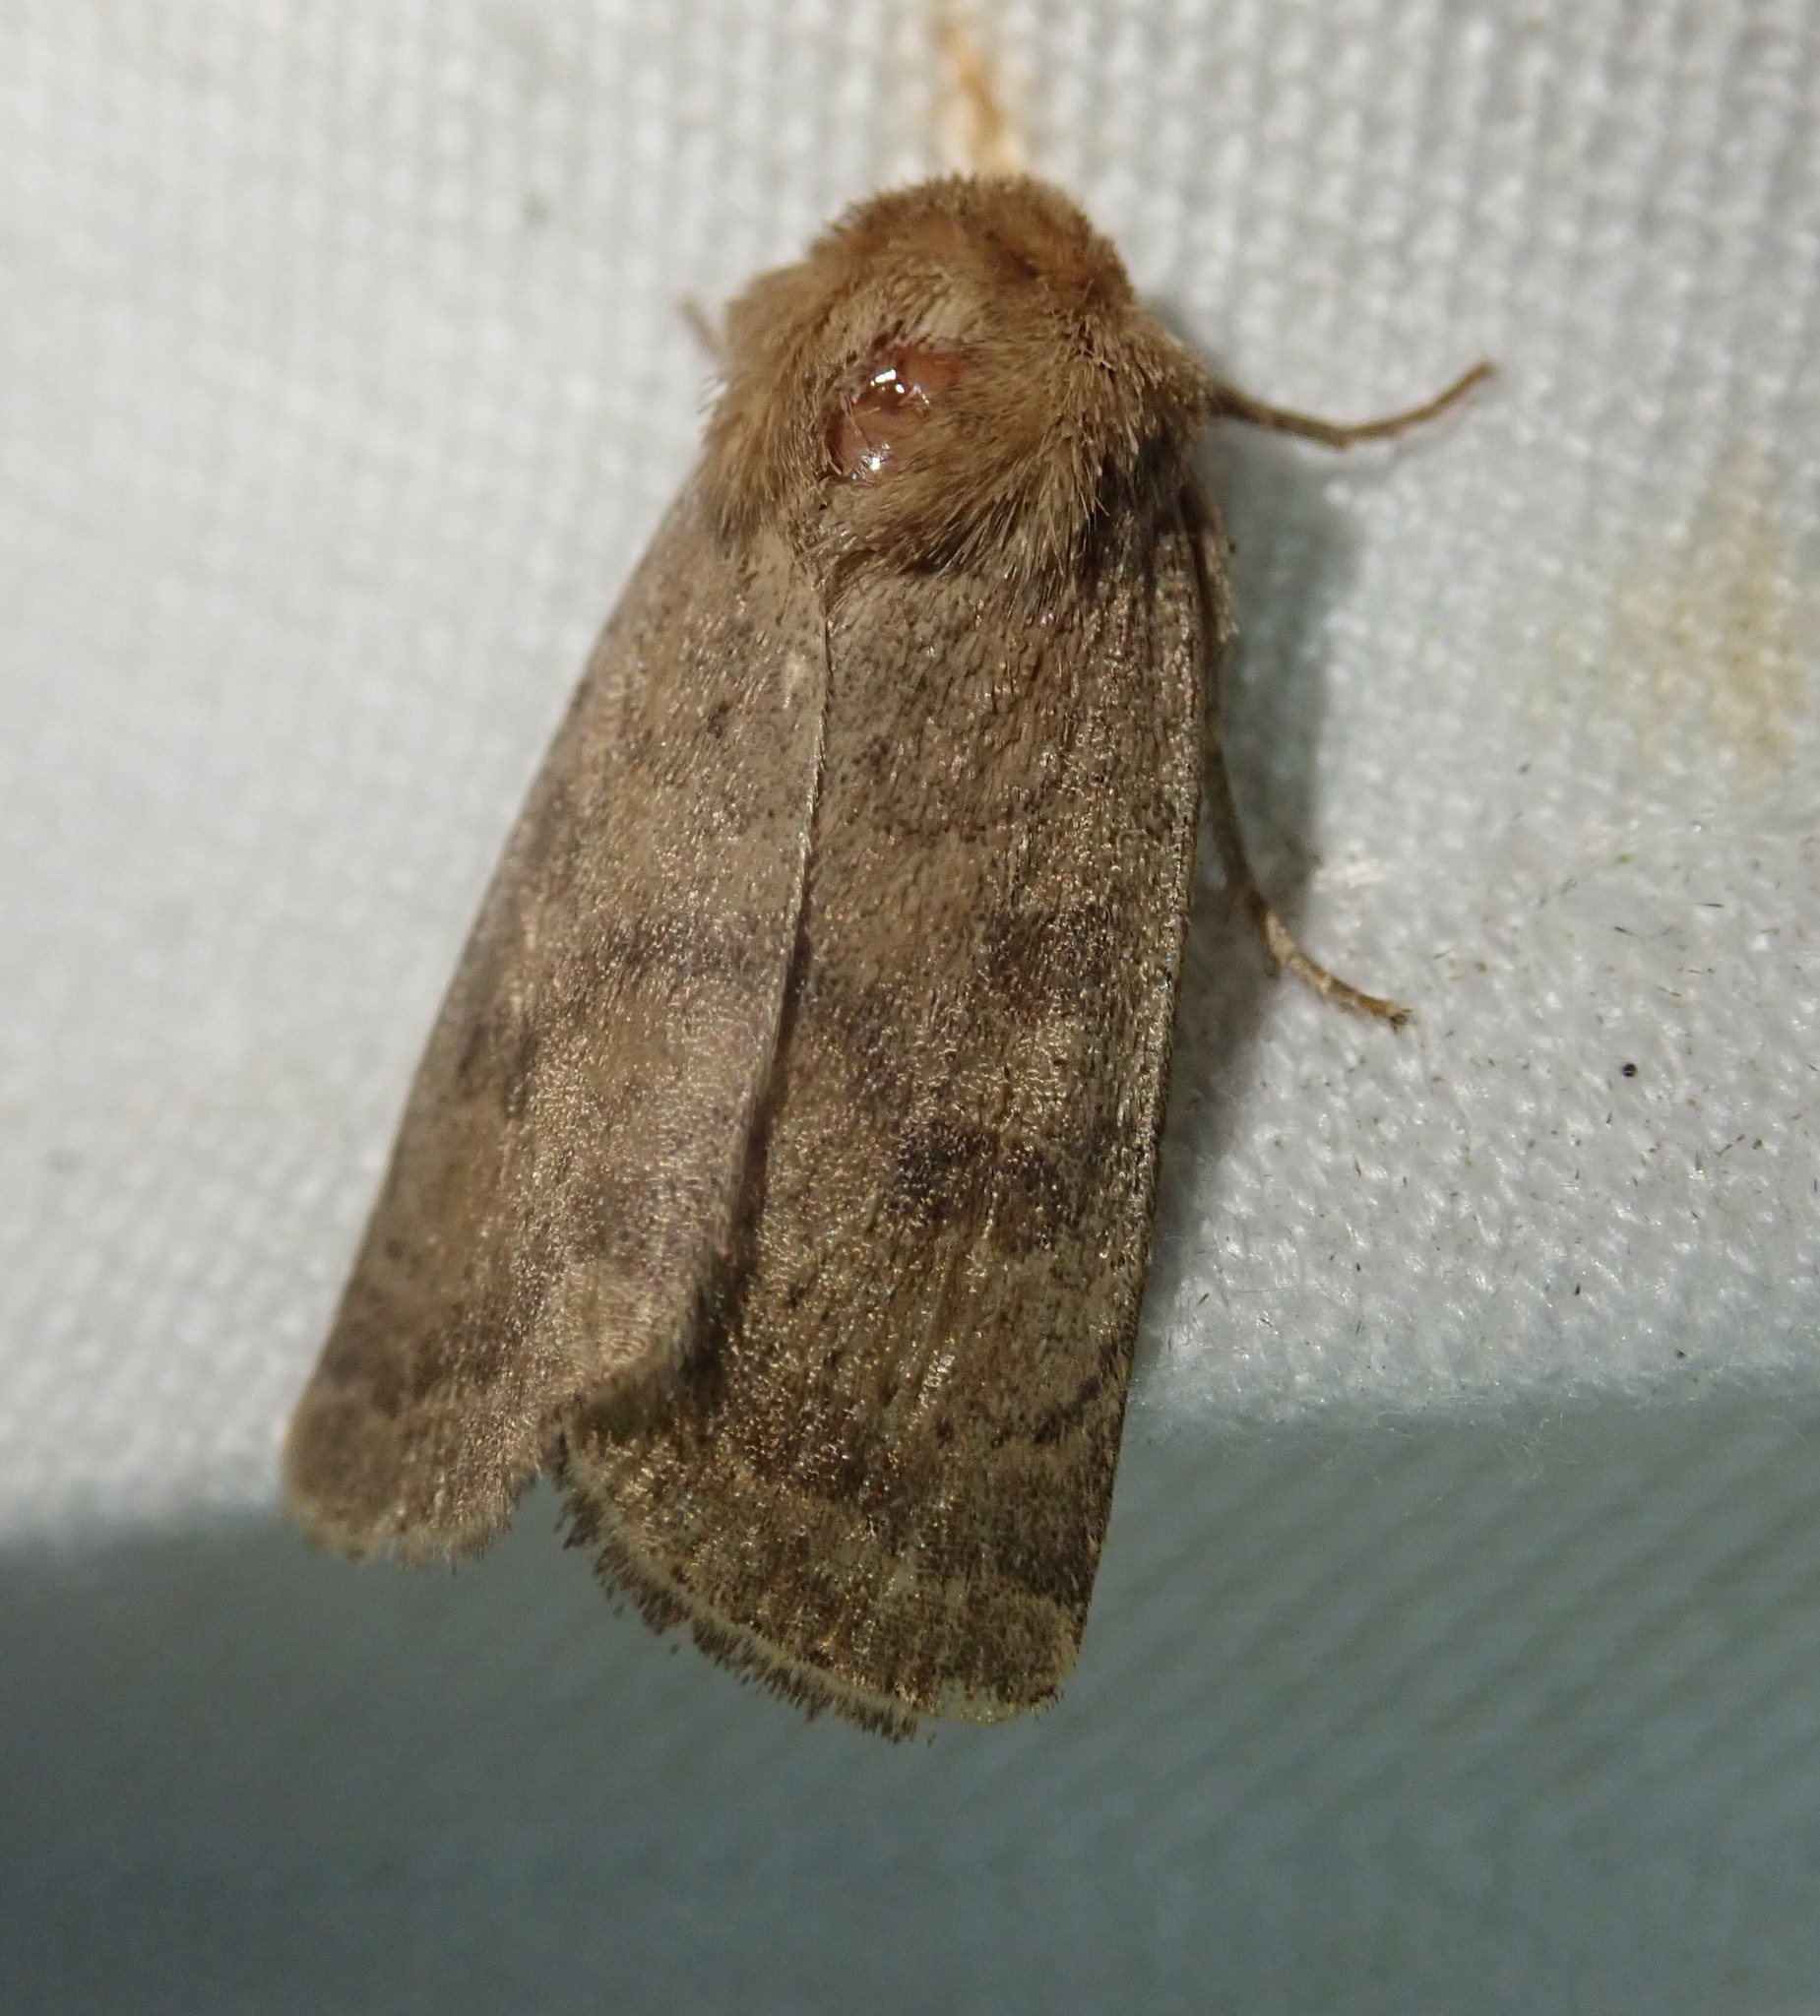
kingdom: Animalia
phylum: Arthropoda
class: Insecta
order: Lepidoptera
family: Noctuidae
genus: Hoplodrina
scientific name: Hoplodrina octogenaria
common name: Uncertain
